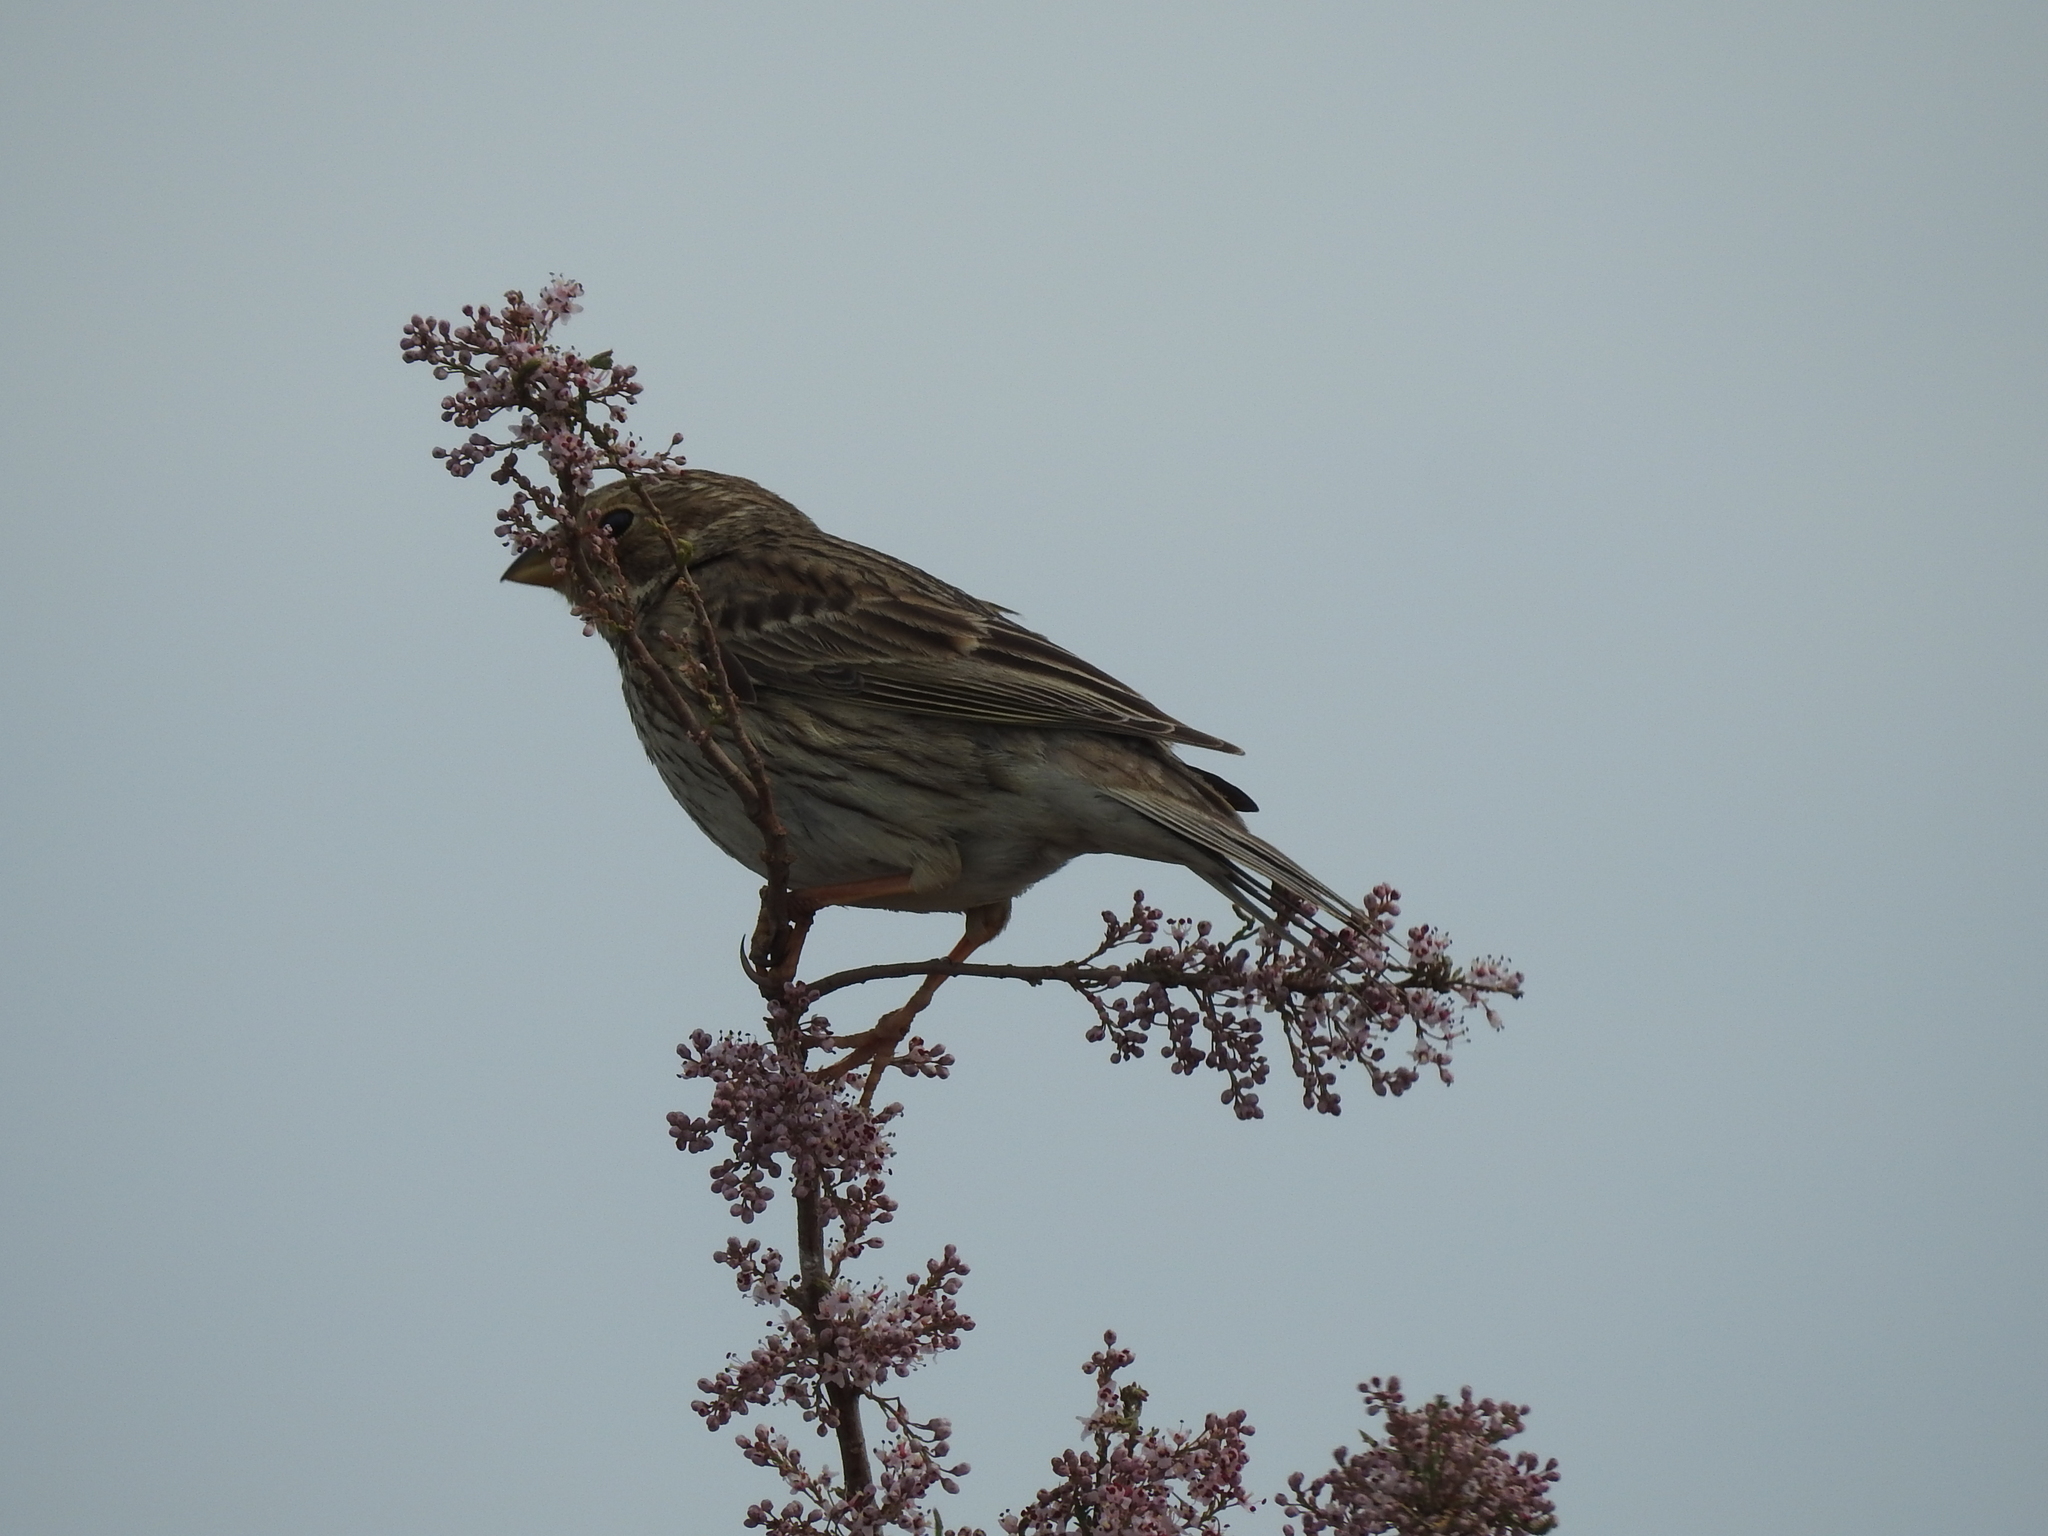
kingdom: Animalia
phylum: Chordata
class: Aves
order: Passeriformes
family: Emberizidae
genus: Emberiza
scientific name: Emberiza calandra
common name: Corn bunting
